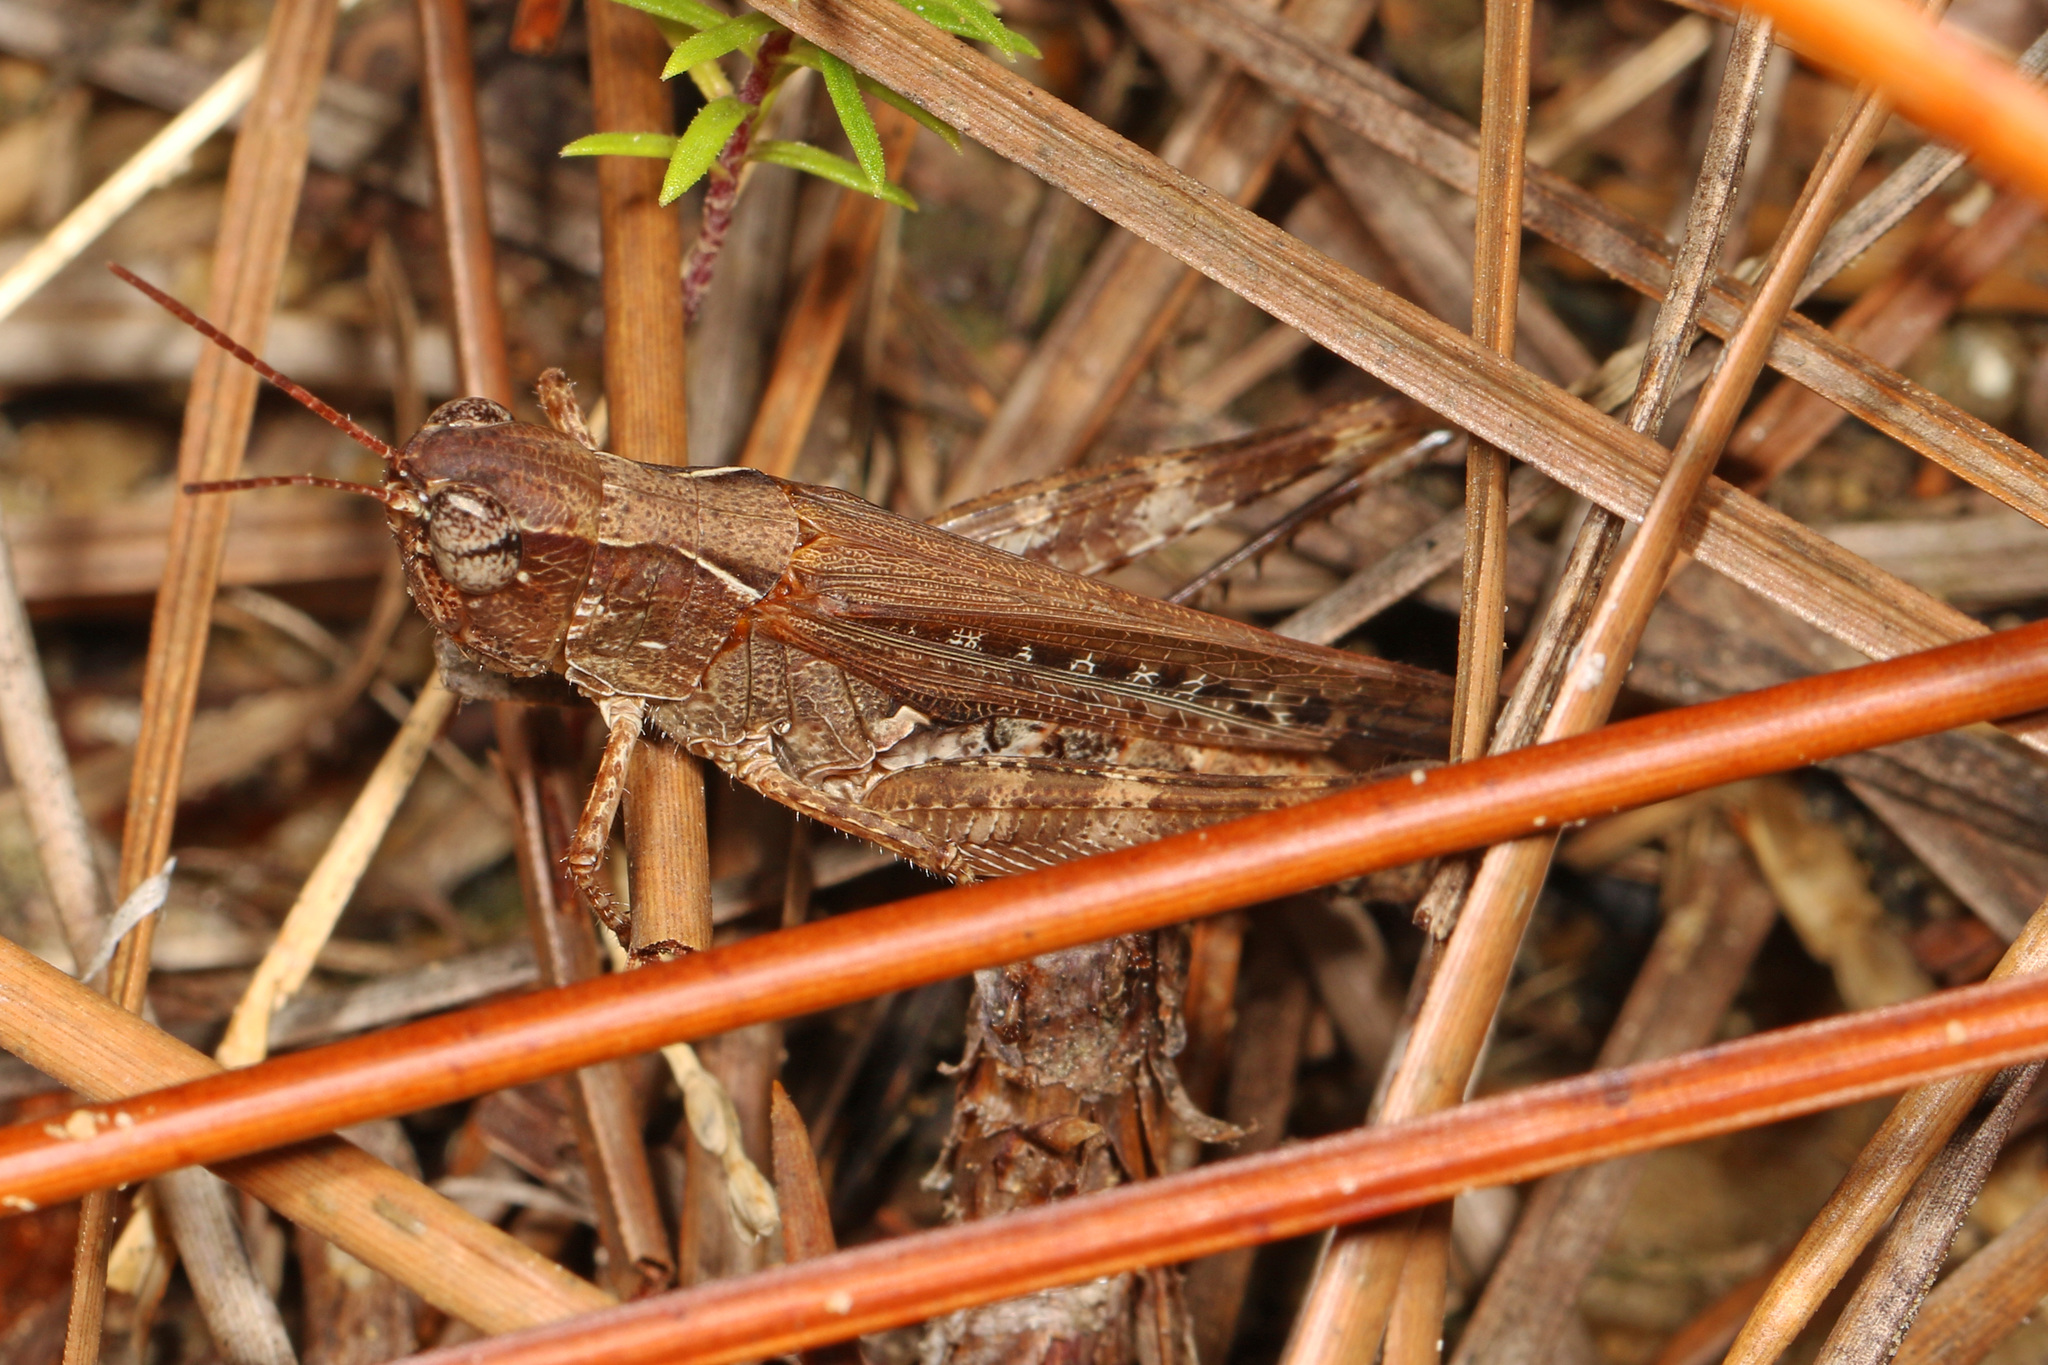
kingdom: Animalia
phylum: Arthropoda
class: Insecta
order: Orthoptera
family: Acrididae
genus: Orphulella
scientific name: Orphulella pelidna
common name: Spotted-wing grasshopper
